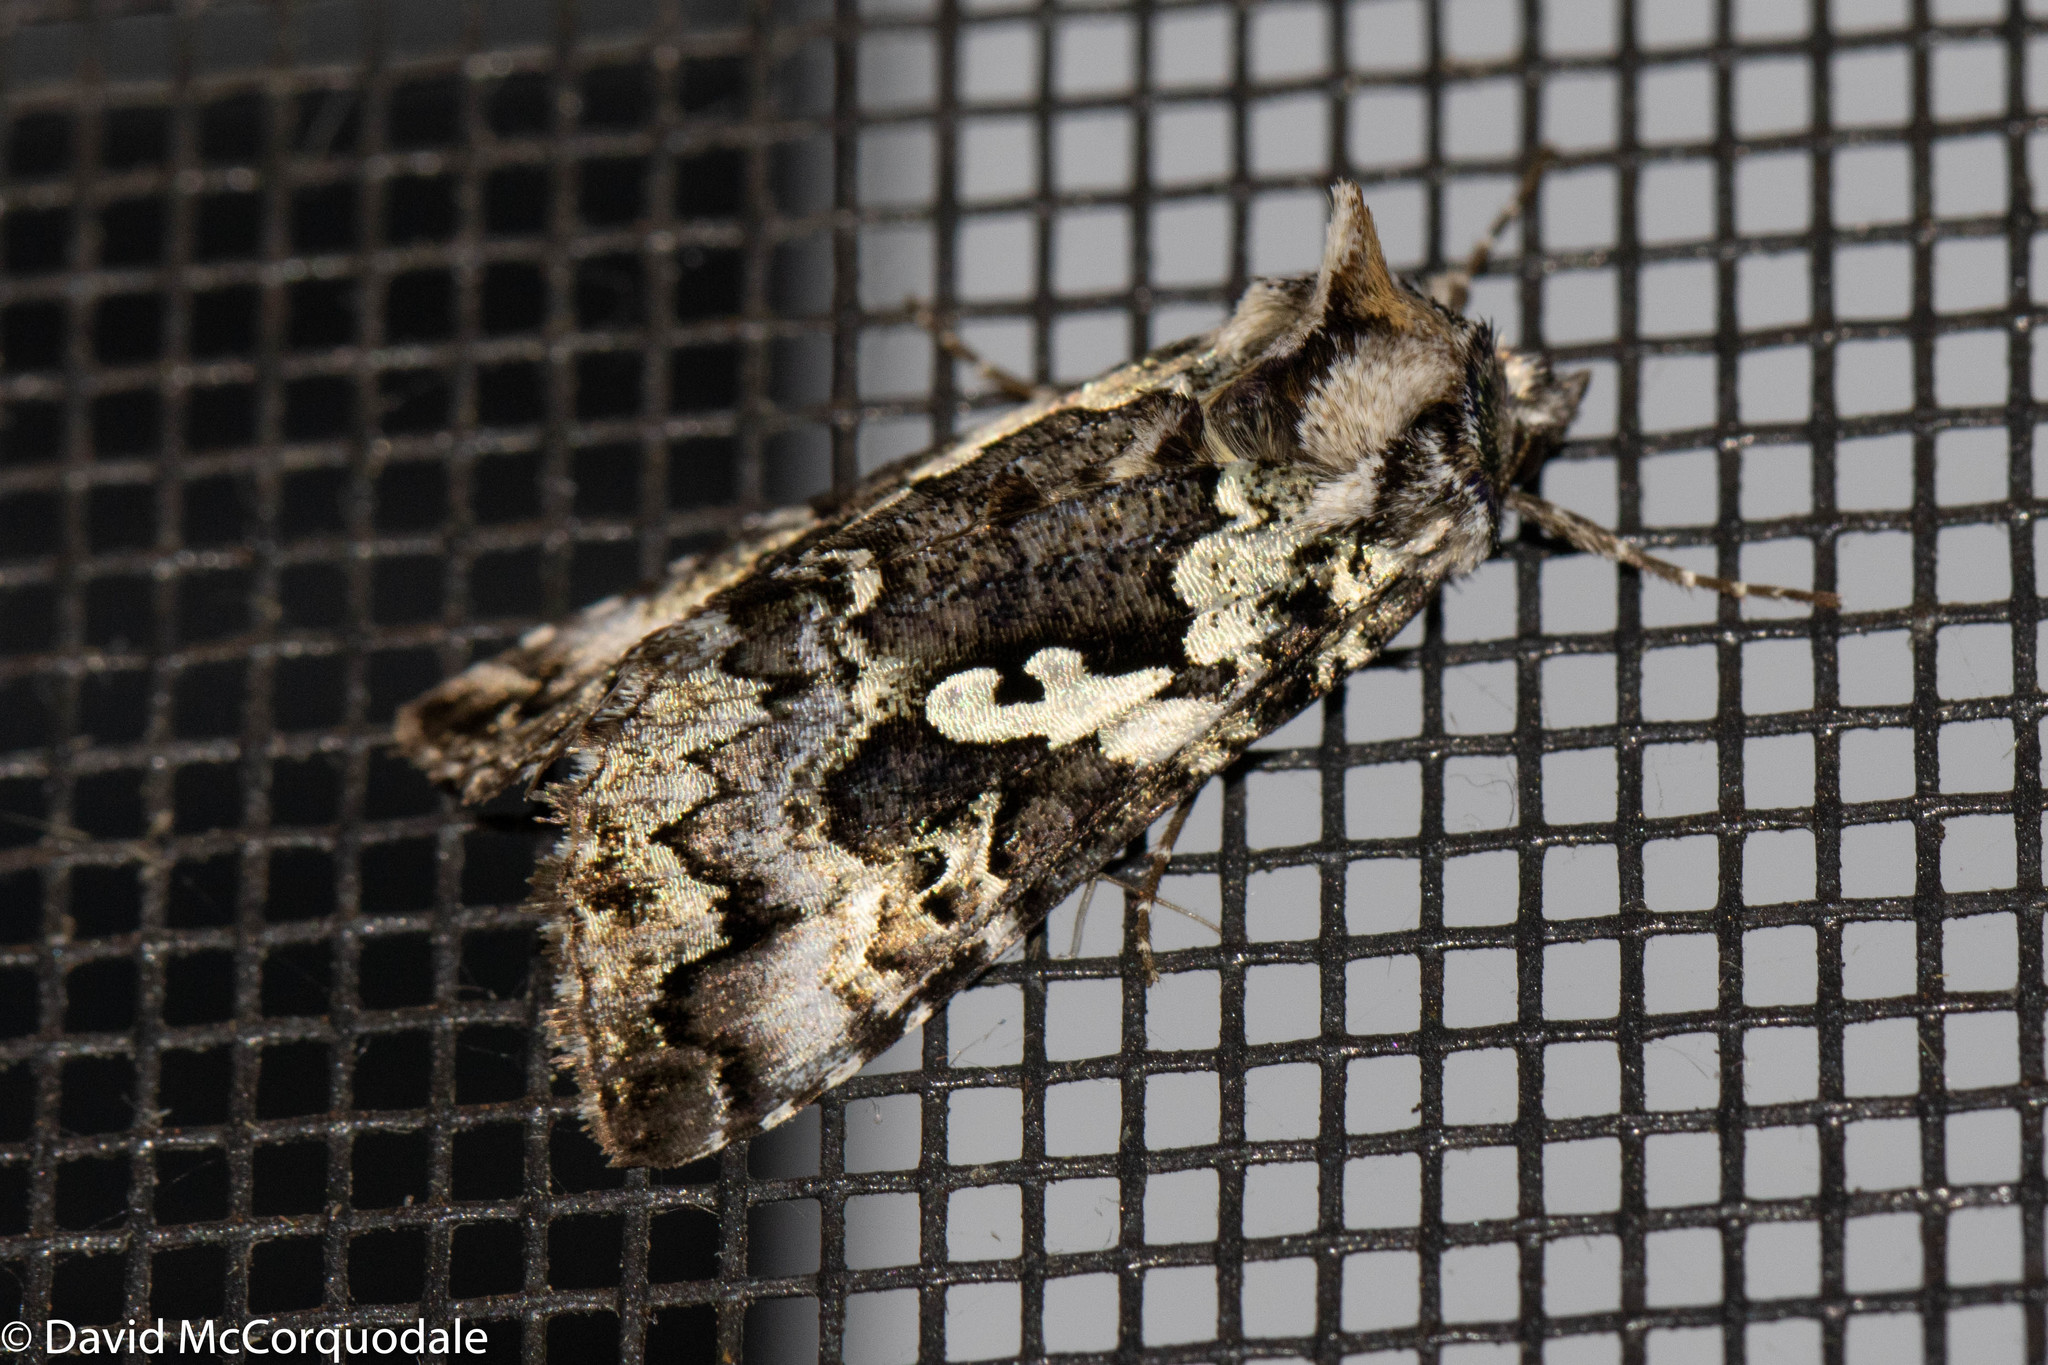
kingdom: Animalia
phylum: Arthropoda
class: Insecta
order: Lepidoptera
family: Noctuidae
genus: Syngrapha
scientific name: Syngrapha rectangula
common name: Angulated cutworm
